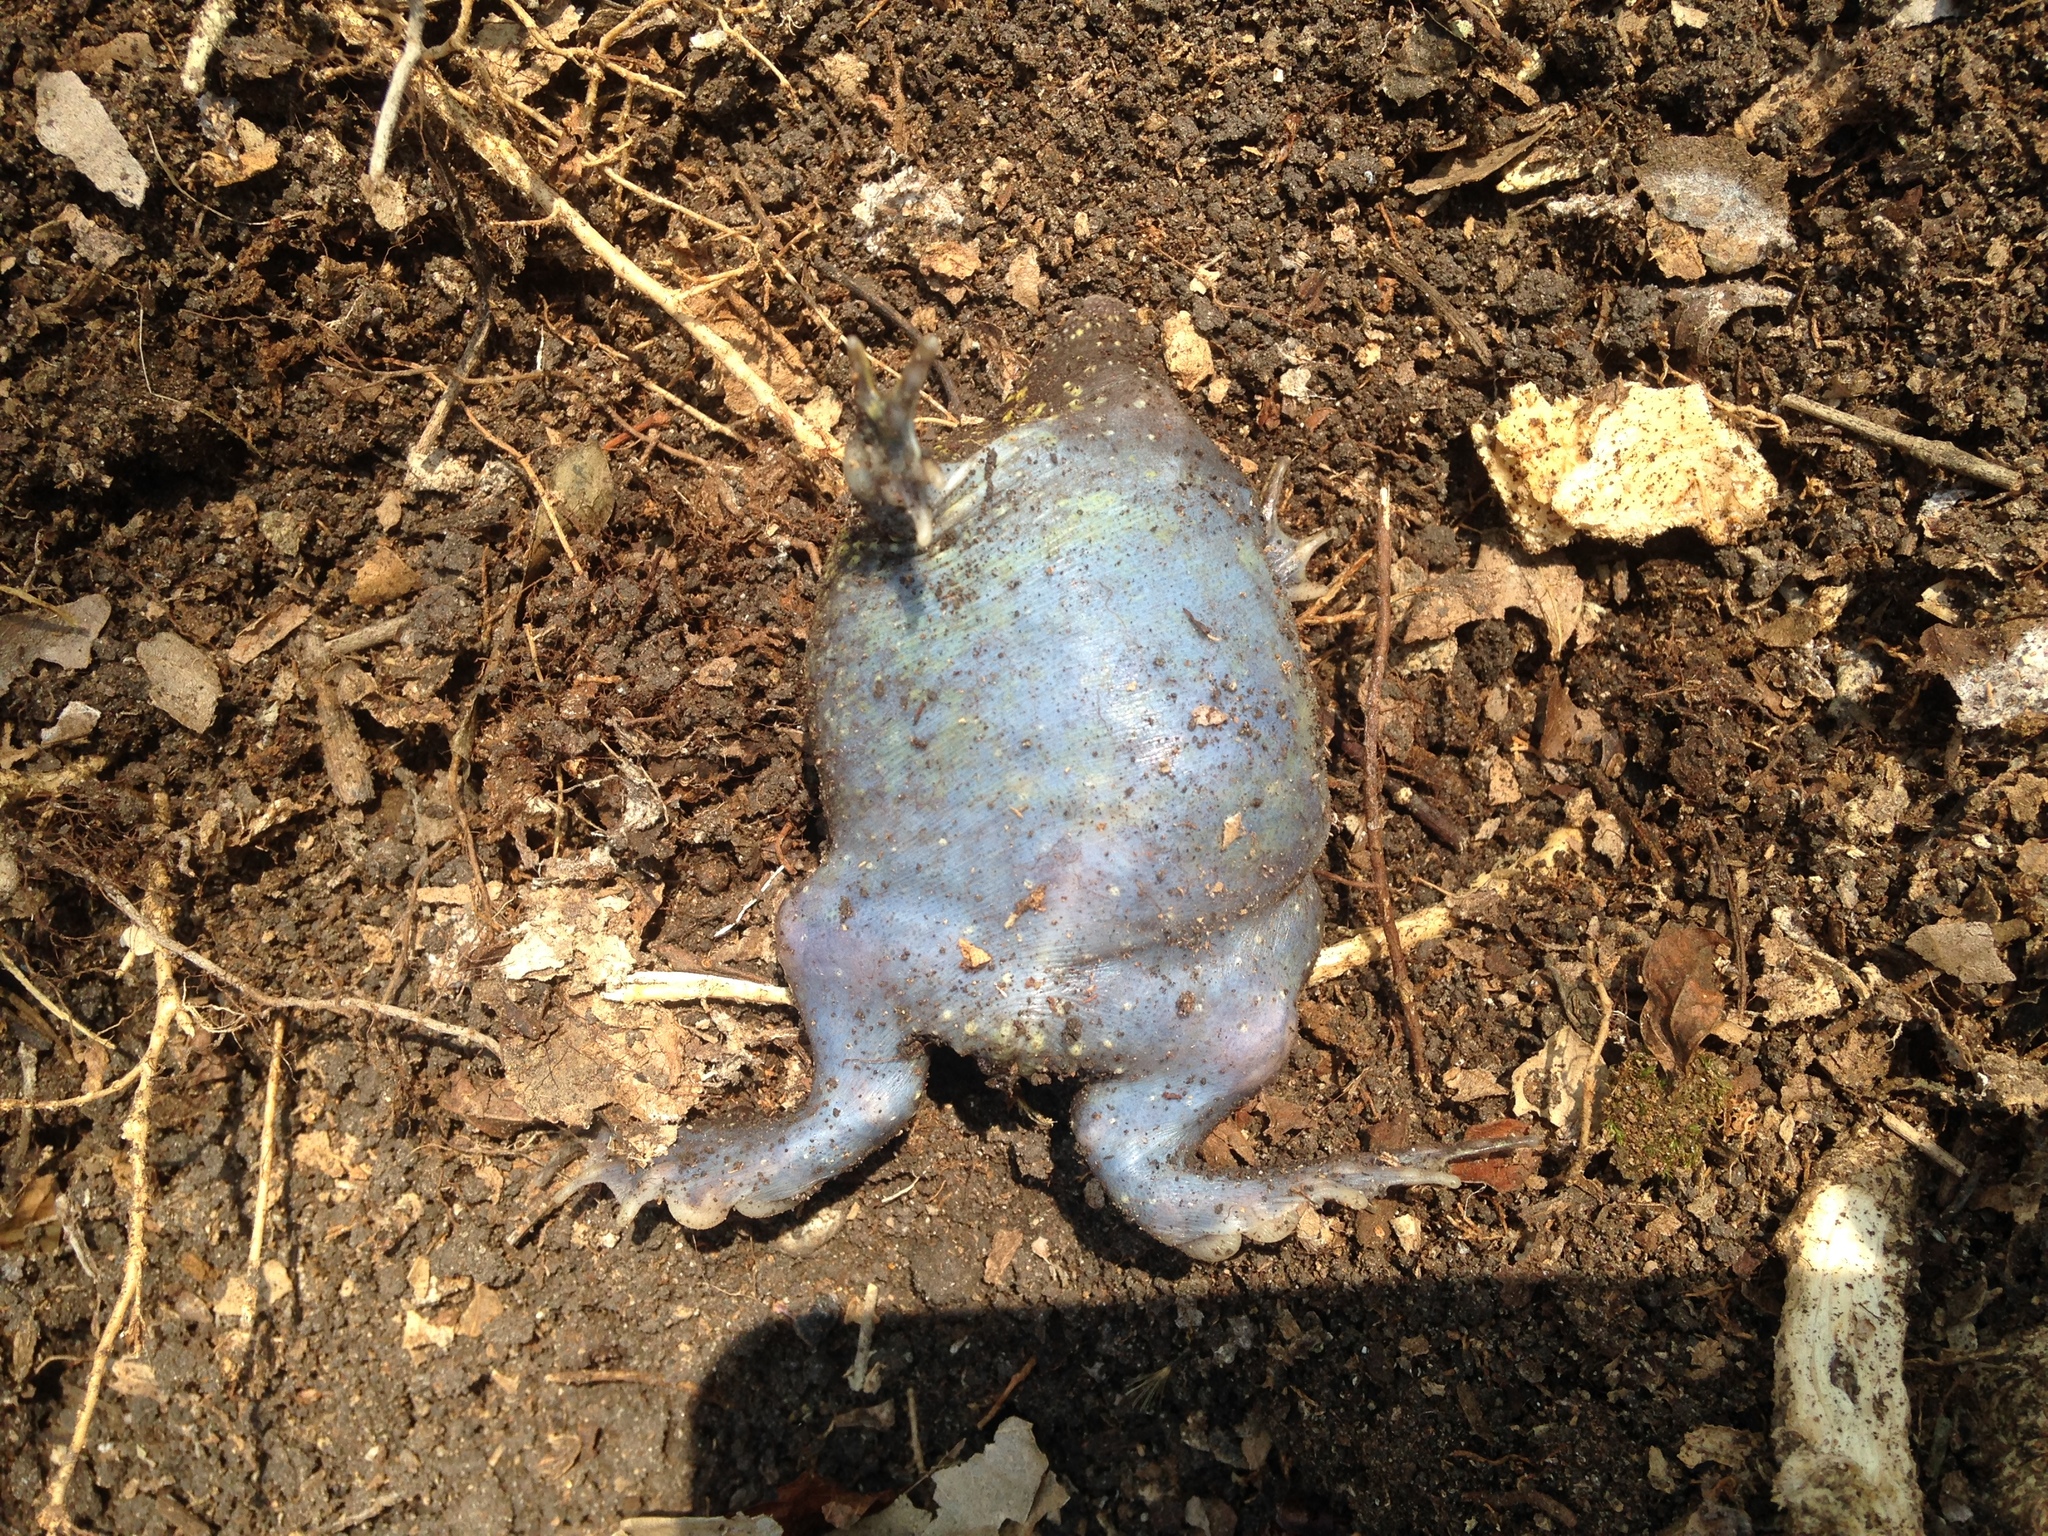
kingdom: Animalia
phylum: Chordata
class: Amphibia
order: Anura
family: Rhinophrynidae
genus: Rhinophrynus
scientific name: Rhinophrynus dorsalis
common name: Mexican burrowing toad
